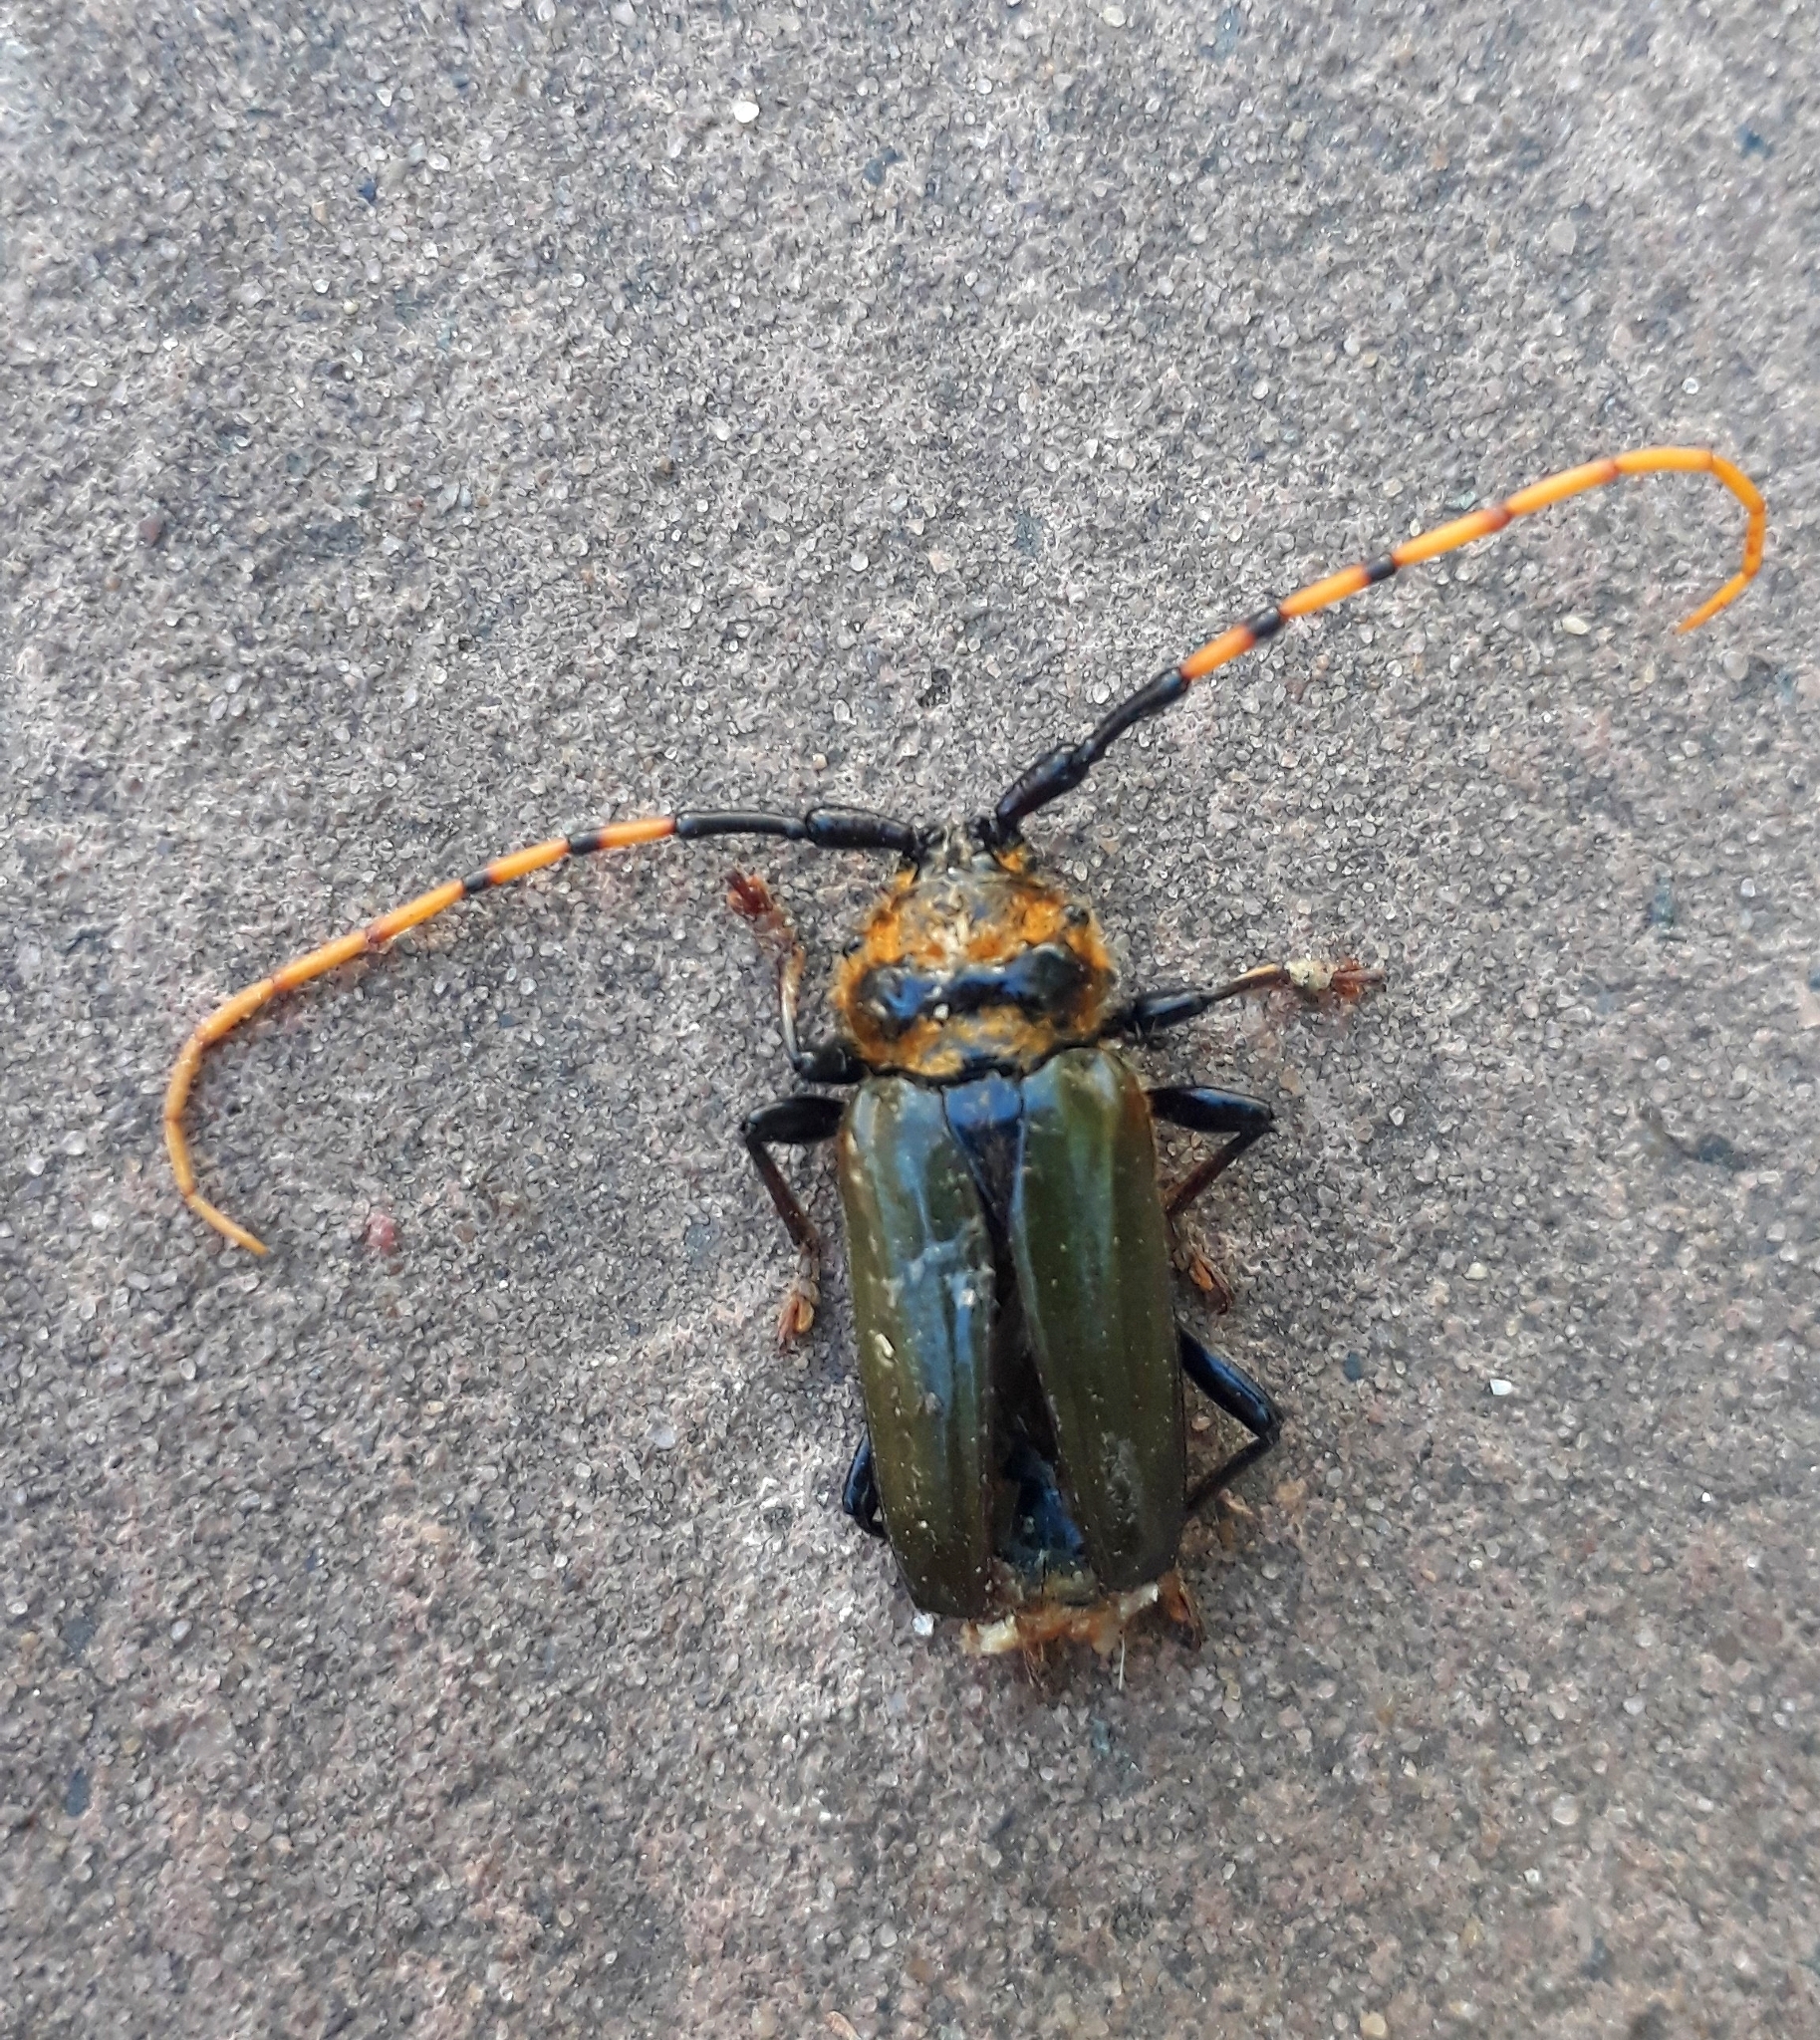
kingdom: Animalia
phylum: Arthropoda
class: Insecta
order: Coleoptera
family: Cerambycidae
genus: Retrachydes
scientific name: Retrachydes thoracicus
